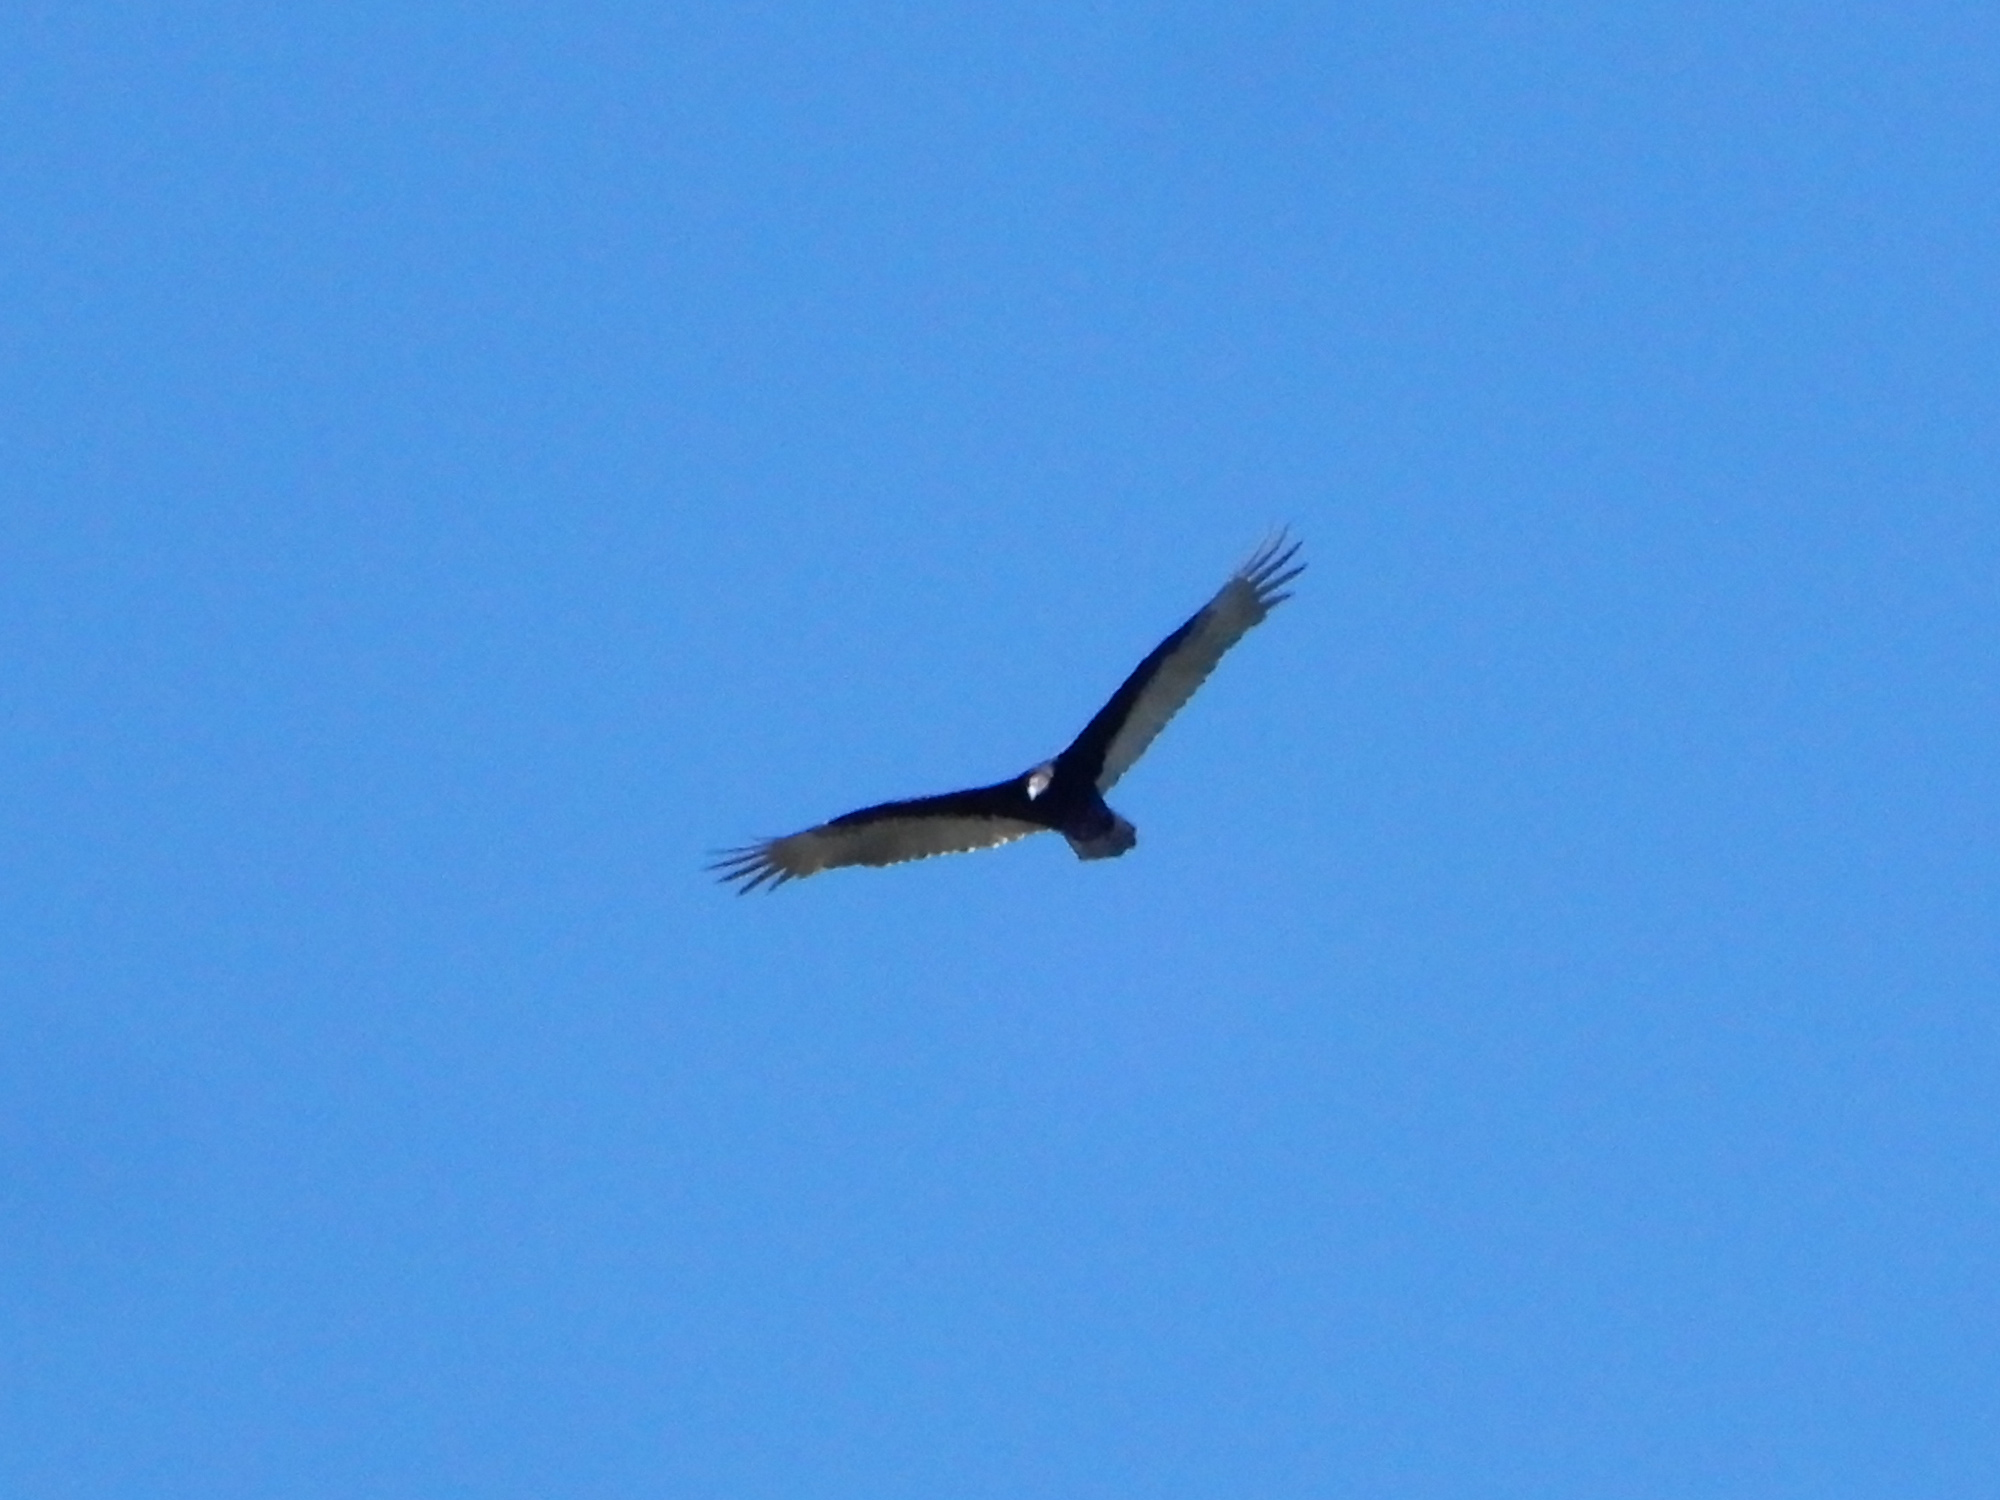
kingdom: Animalia
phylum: Chordata
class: Aves
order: Accipitriformes
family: Cathartidae
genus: Cathartes
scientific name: Cathartes aura
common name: Turkey vulture
